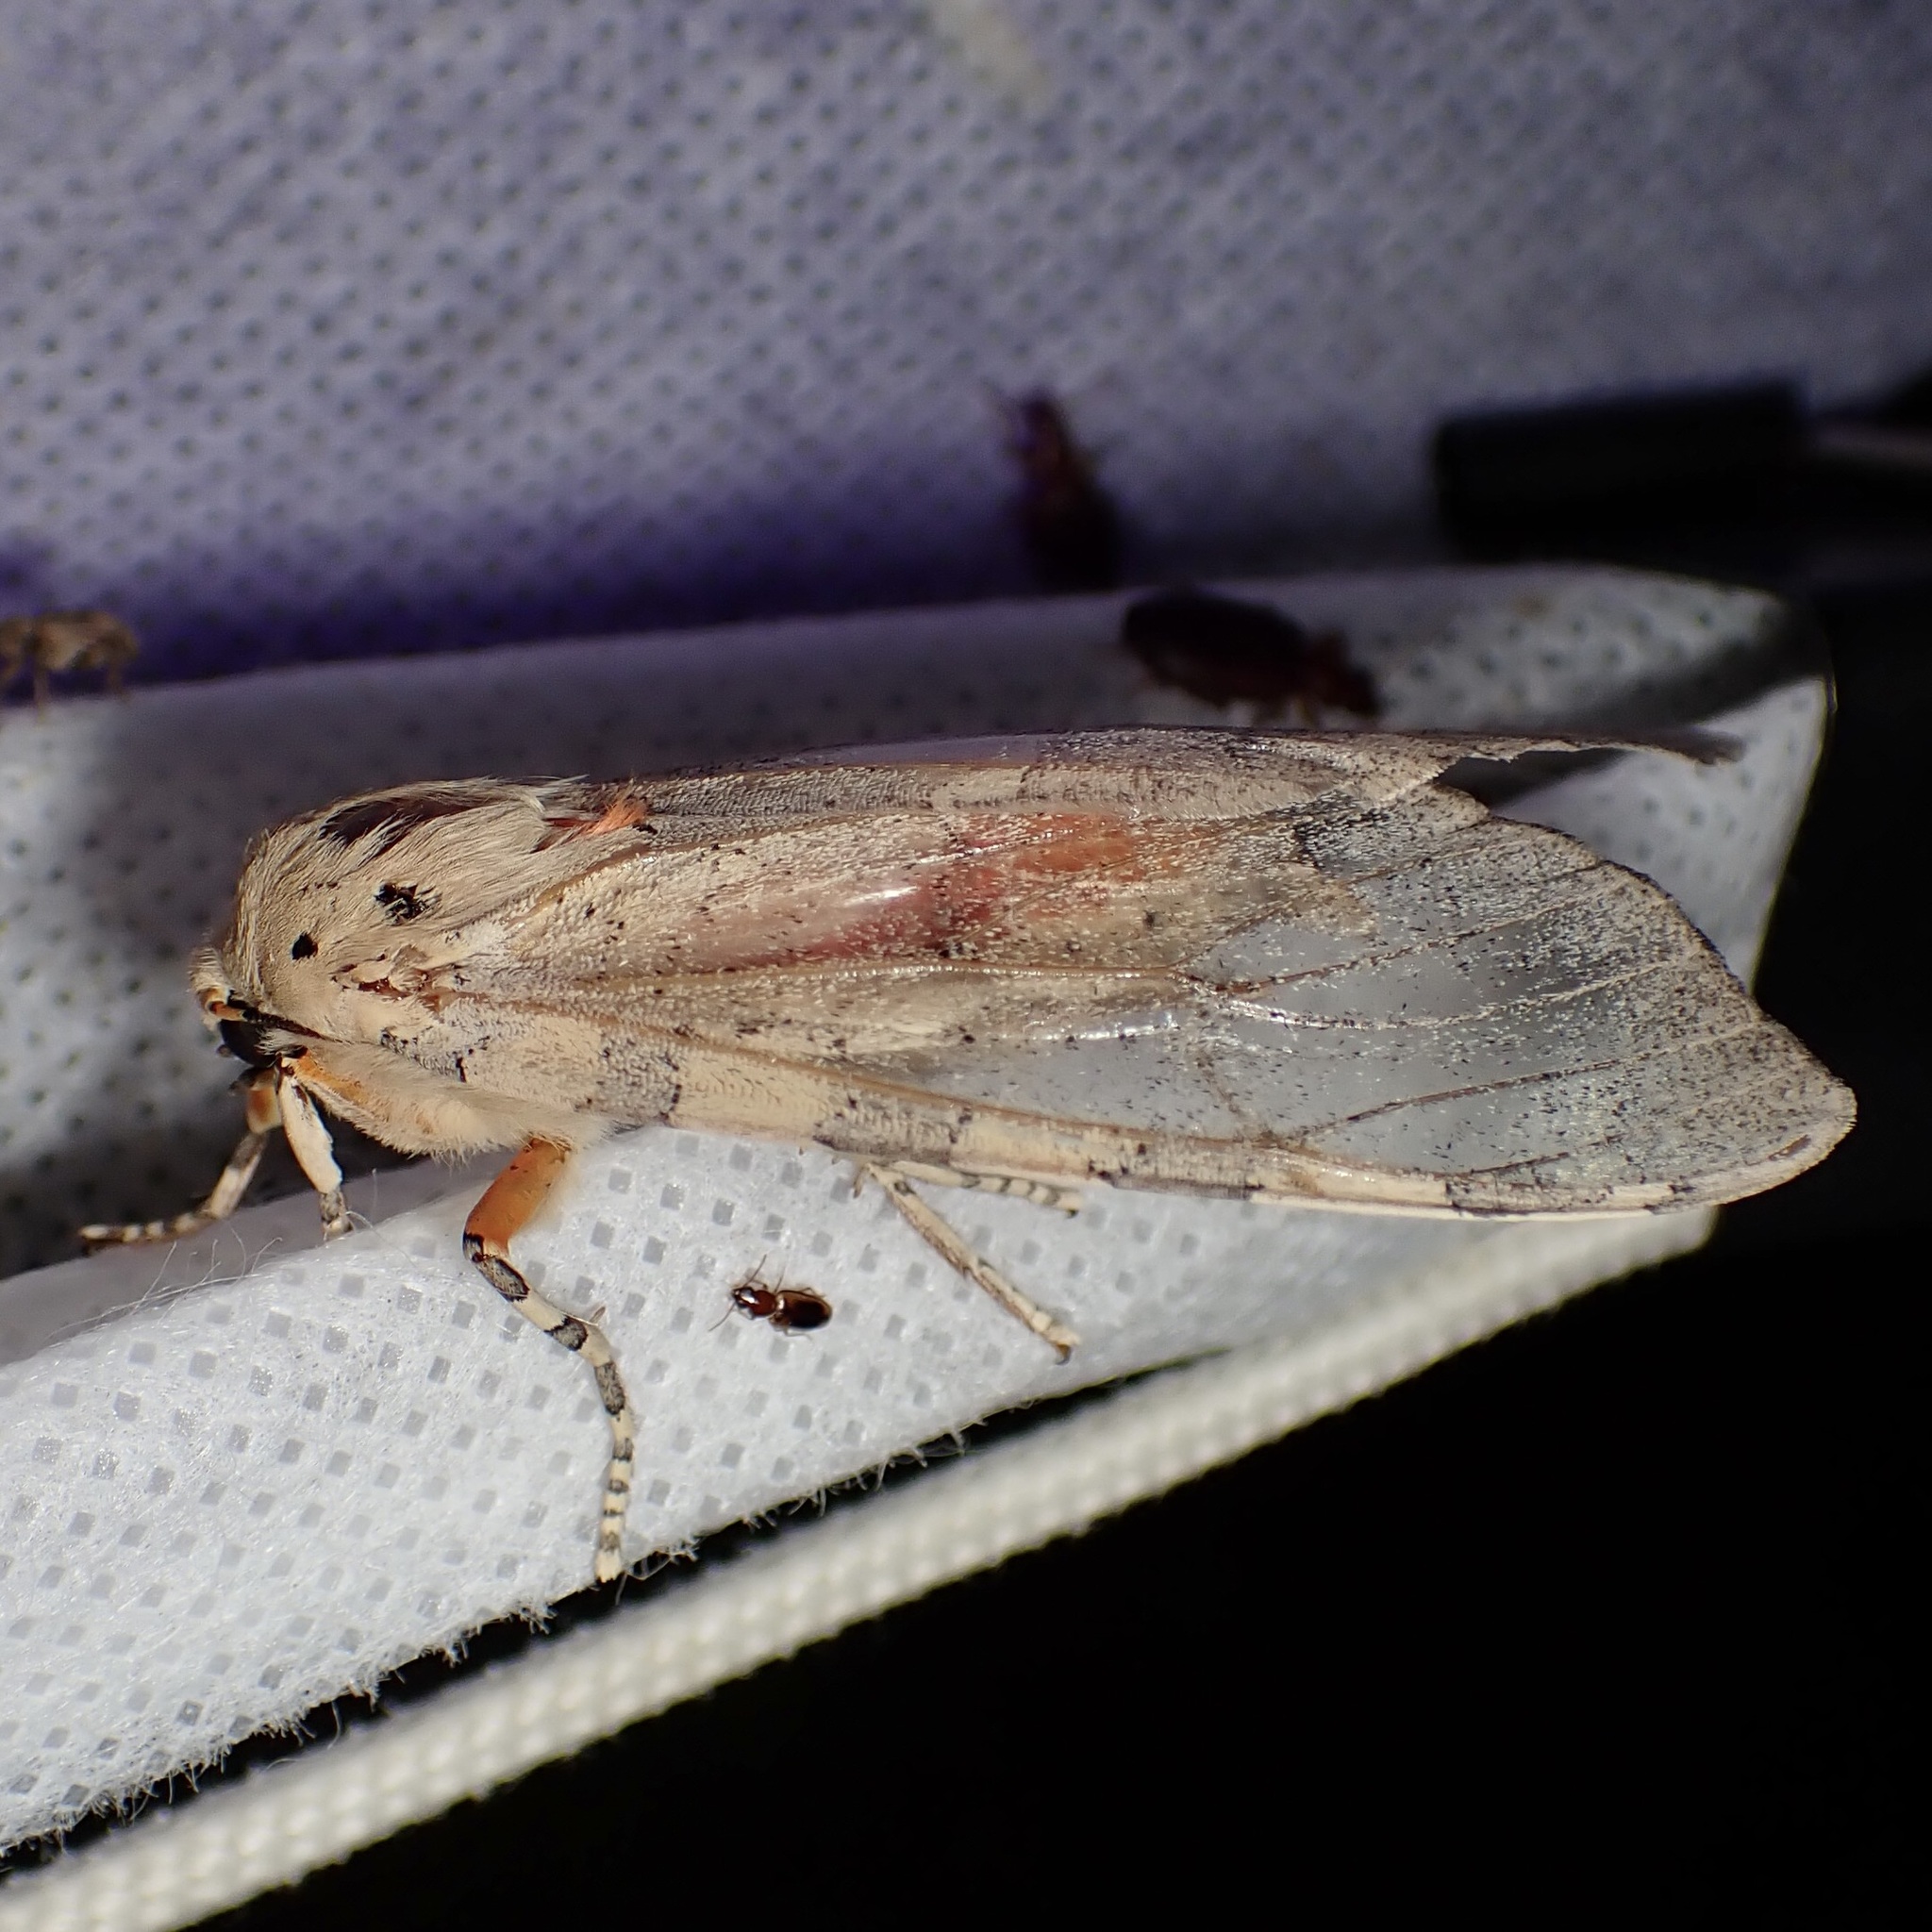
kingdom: Animalia
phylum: Arthropoda
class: Insecta
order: Lepidoptera
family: Erebidae
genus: Hemihyalea
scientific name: Hemihyalea edwardsii
